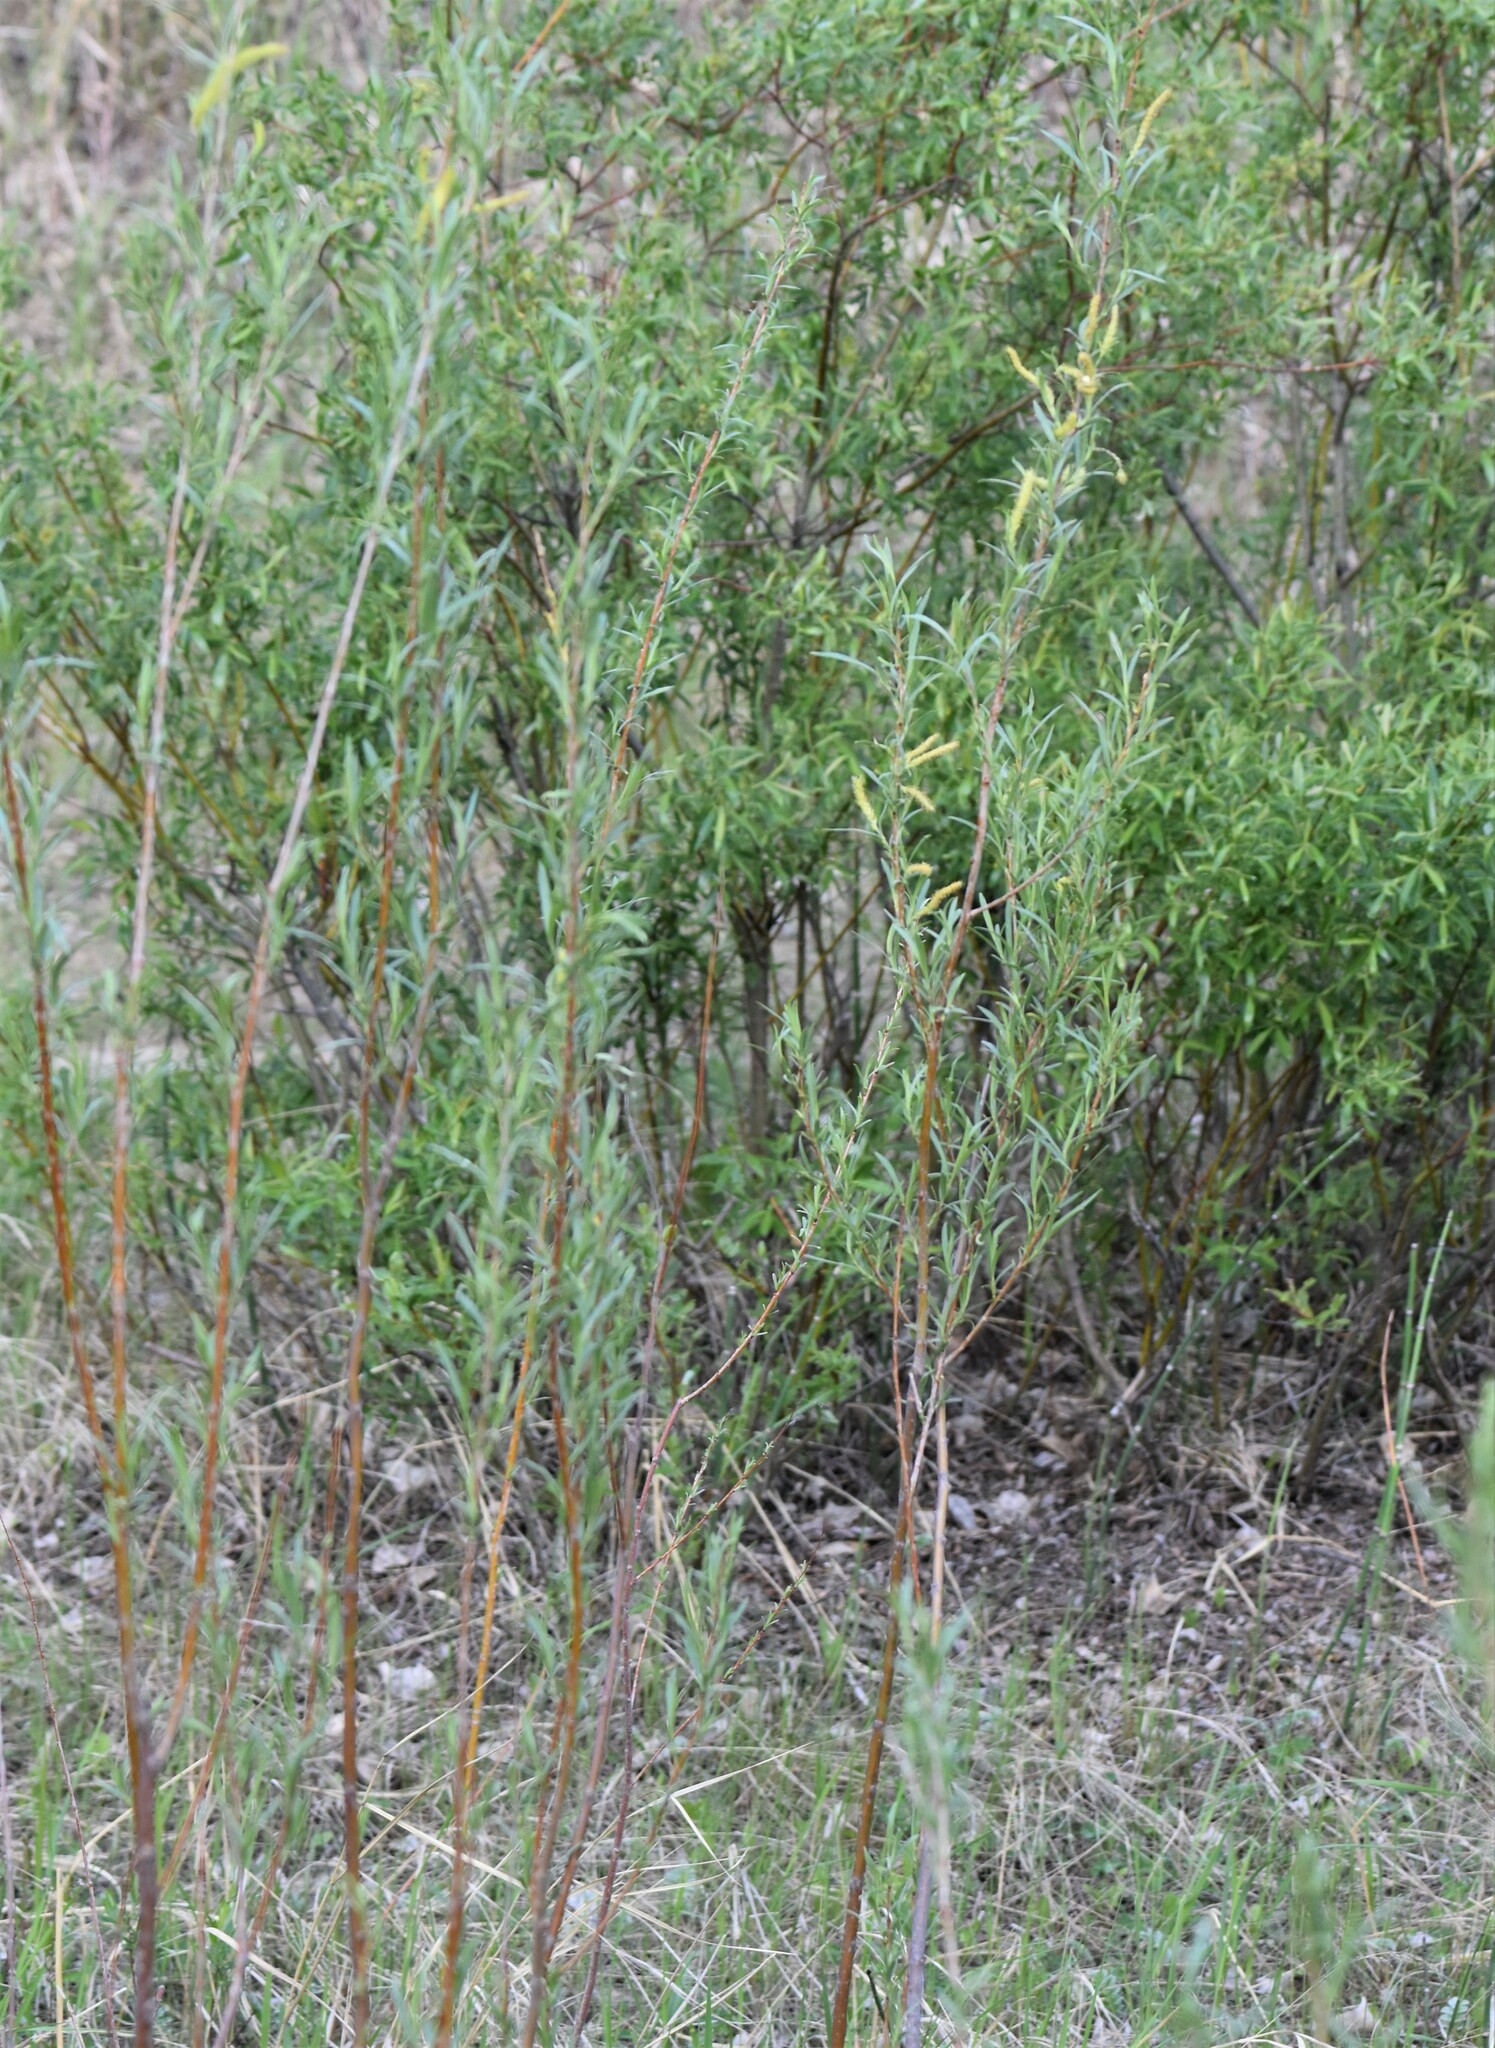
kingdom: Plantae
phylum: Tracheophyta
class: Magnoliopsida
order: Malpighiales
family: Salicaceae
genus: Salix
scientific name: Salix interior
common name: Sandbar willow
